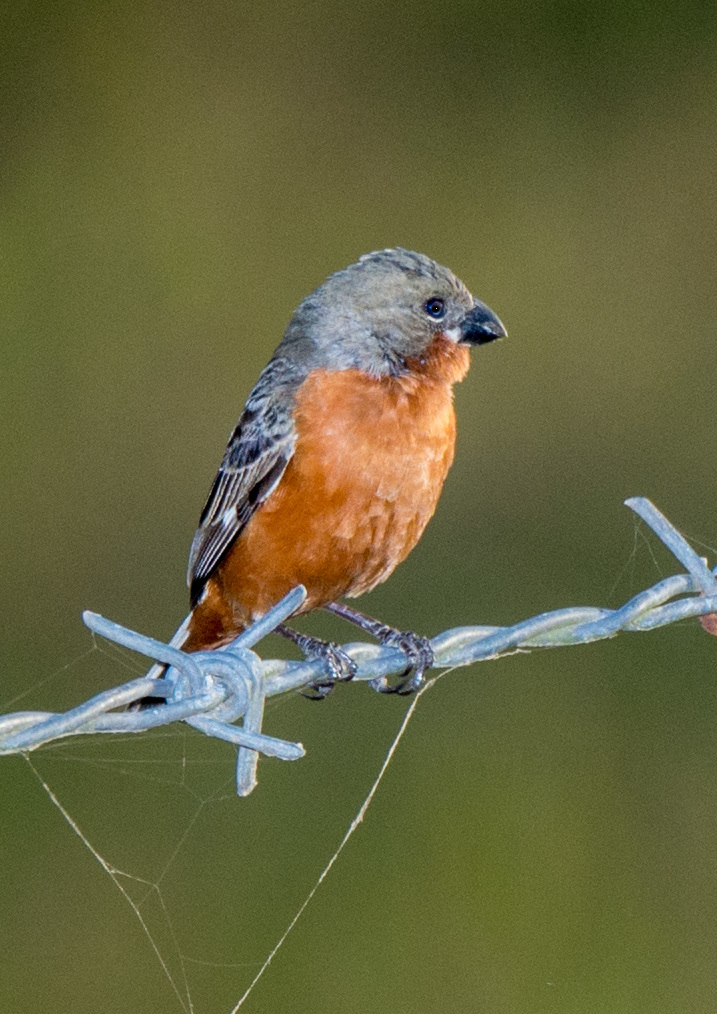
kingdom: Animalia
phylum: Chordata
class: Aves
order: Passeriformes
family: Thraupidae
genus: Sporophila
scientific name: Sporophila minuta
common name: Ruddy-breasted seedeater
